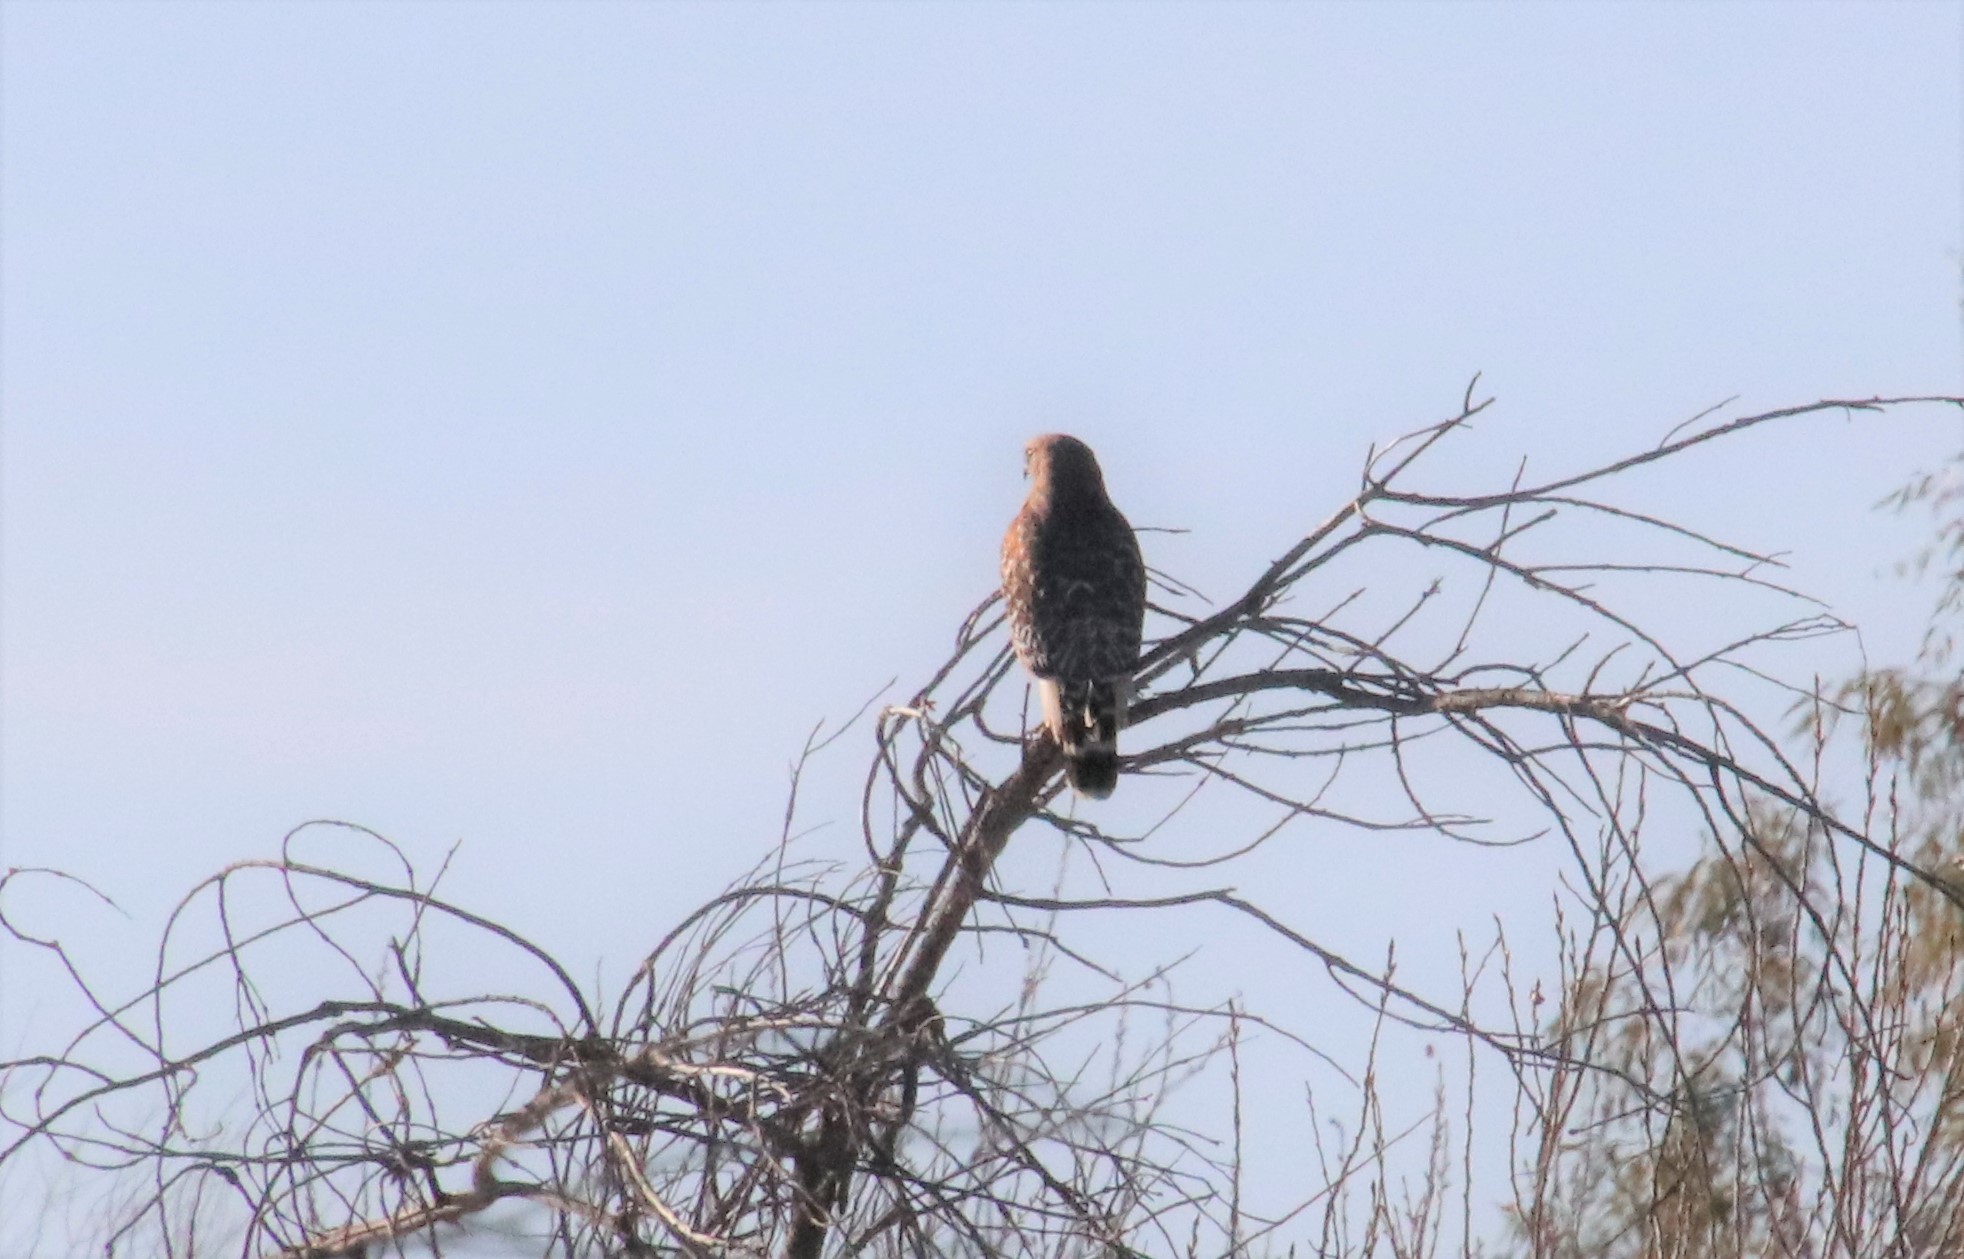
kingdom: Animalia
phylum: Chordata
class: Aves
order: Accipitriformes
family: Accipitridae
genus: Buteo
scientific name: Buteo lineatus
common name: Red-shouldered hawk
